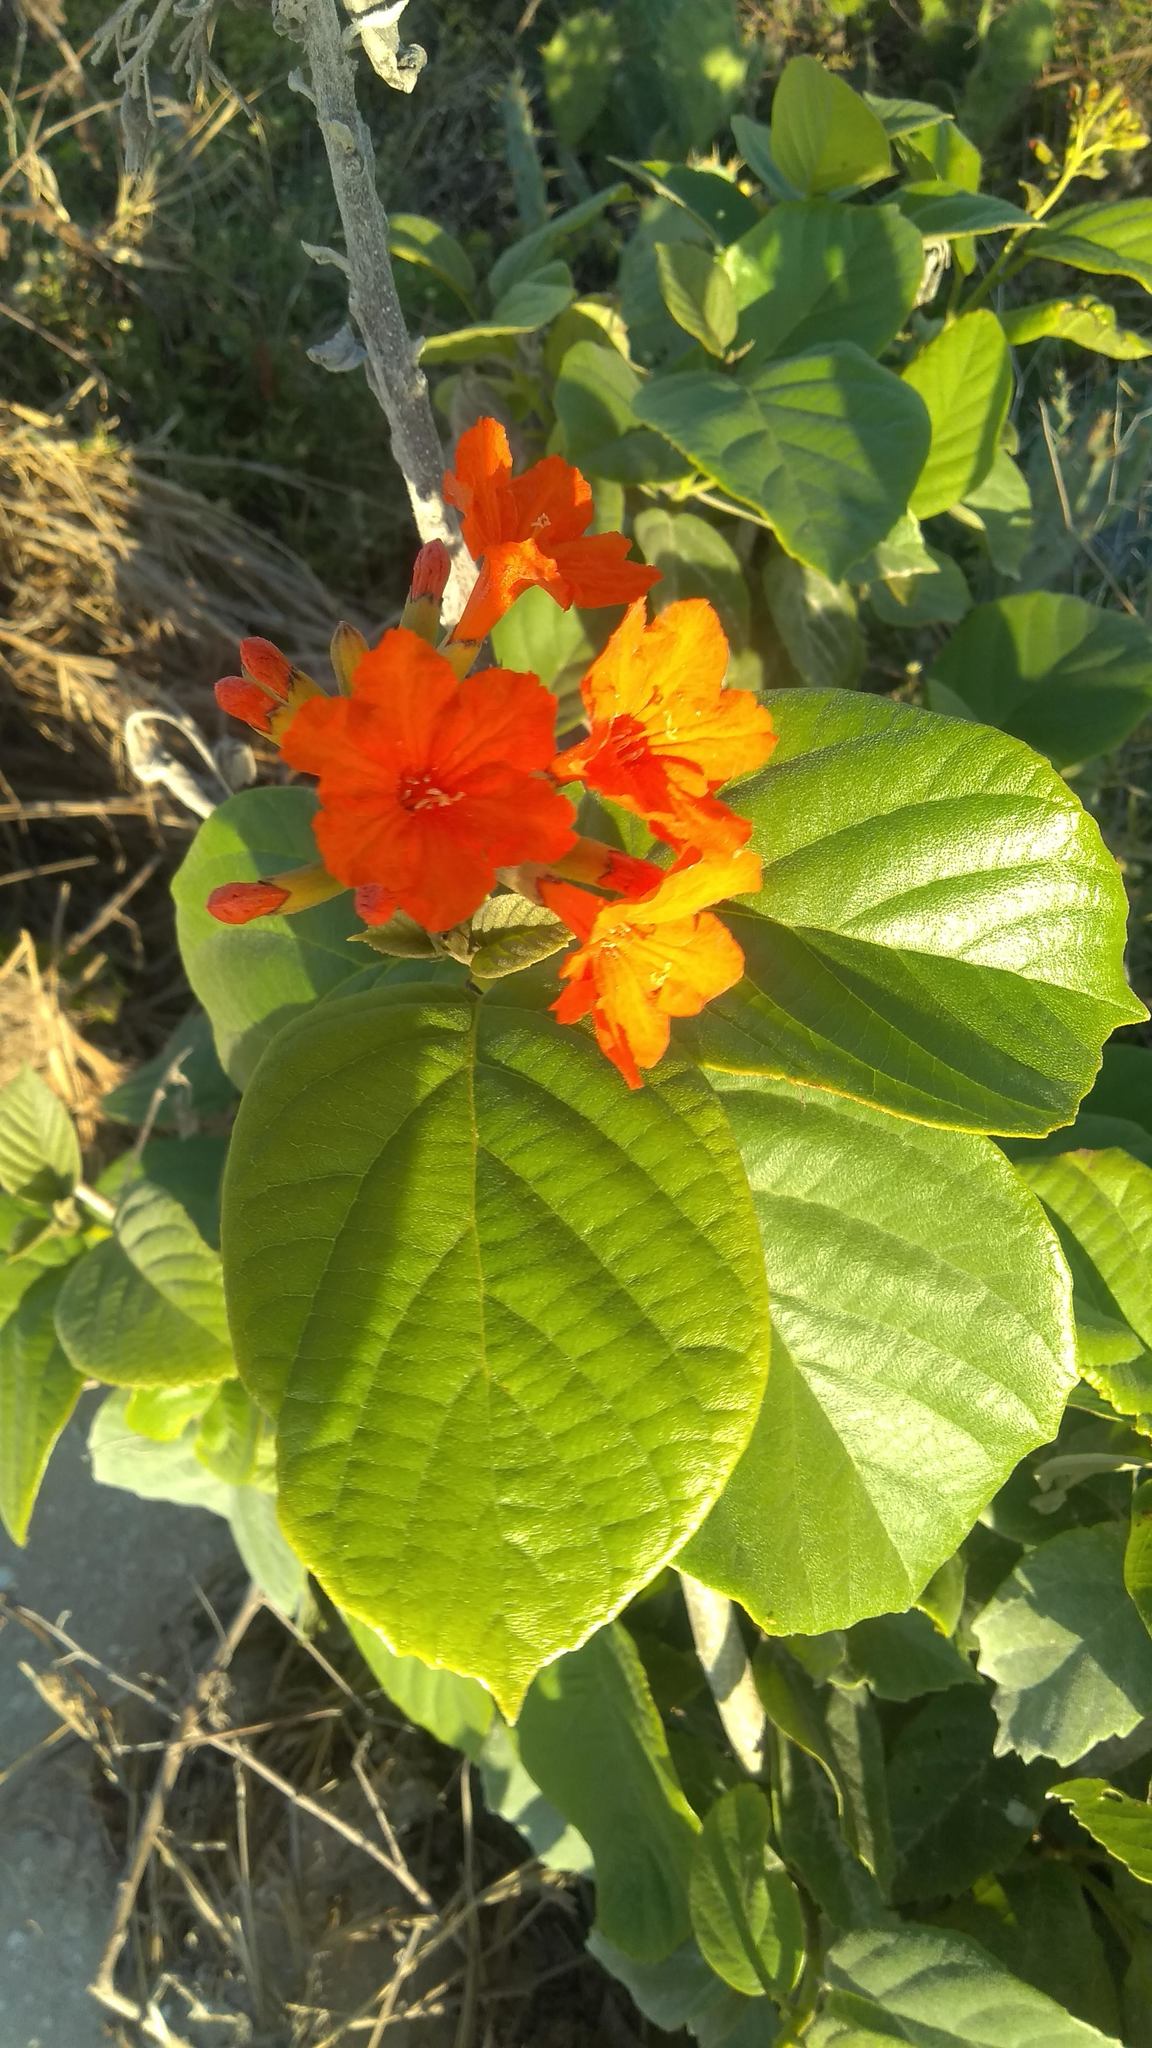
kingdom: Plantae
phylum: Tracheophyta
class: Magnoliopsida
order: Boraginales
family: Cordiaceae
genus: Cordia
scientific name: Cordia sebestena
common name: Largeleaf geigertree
